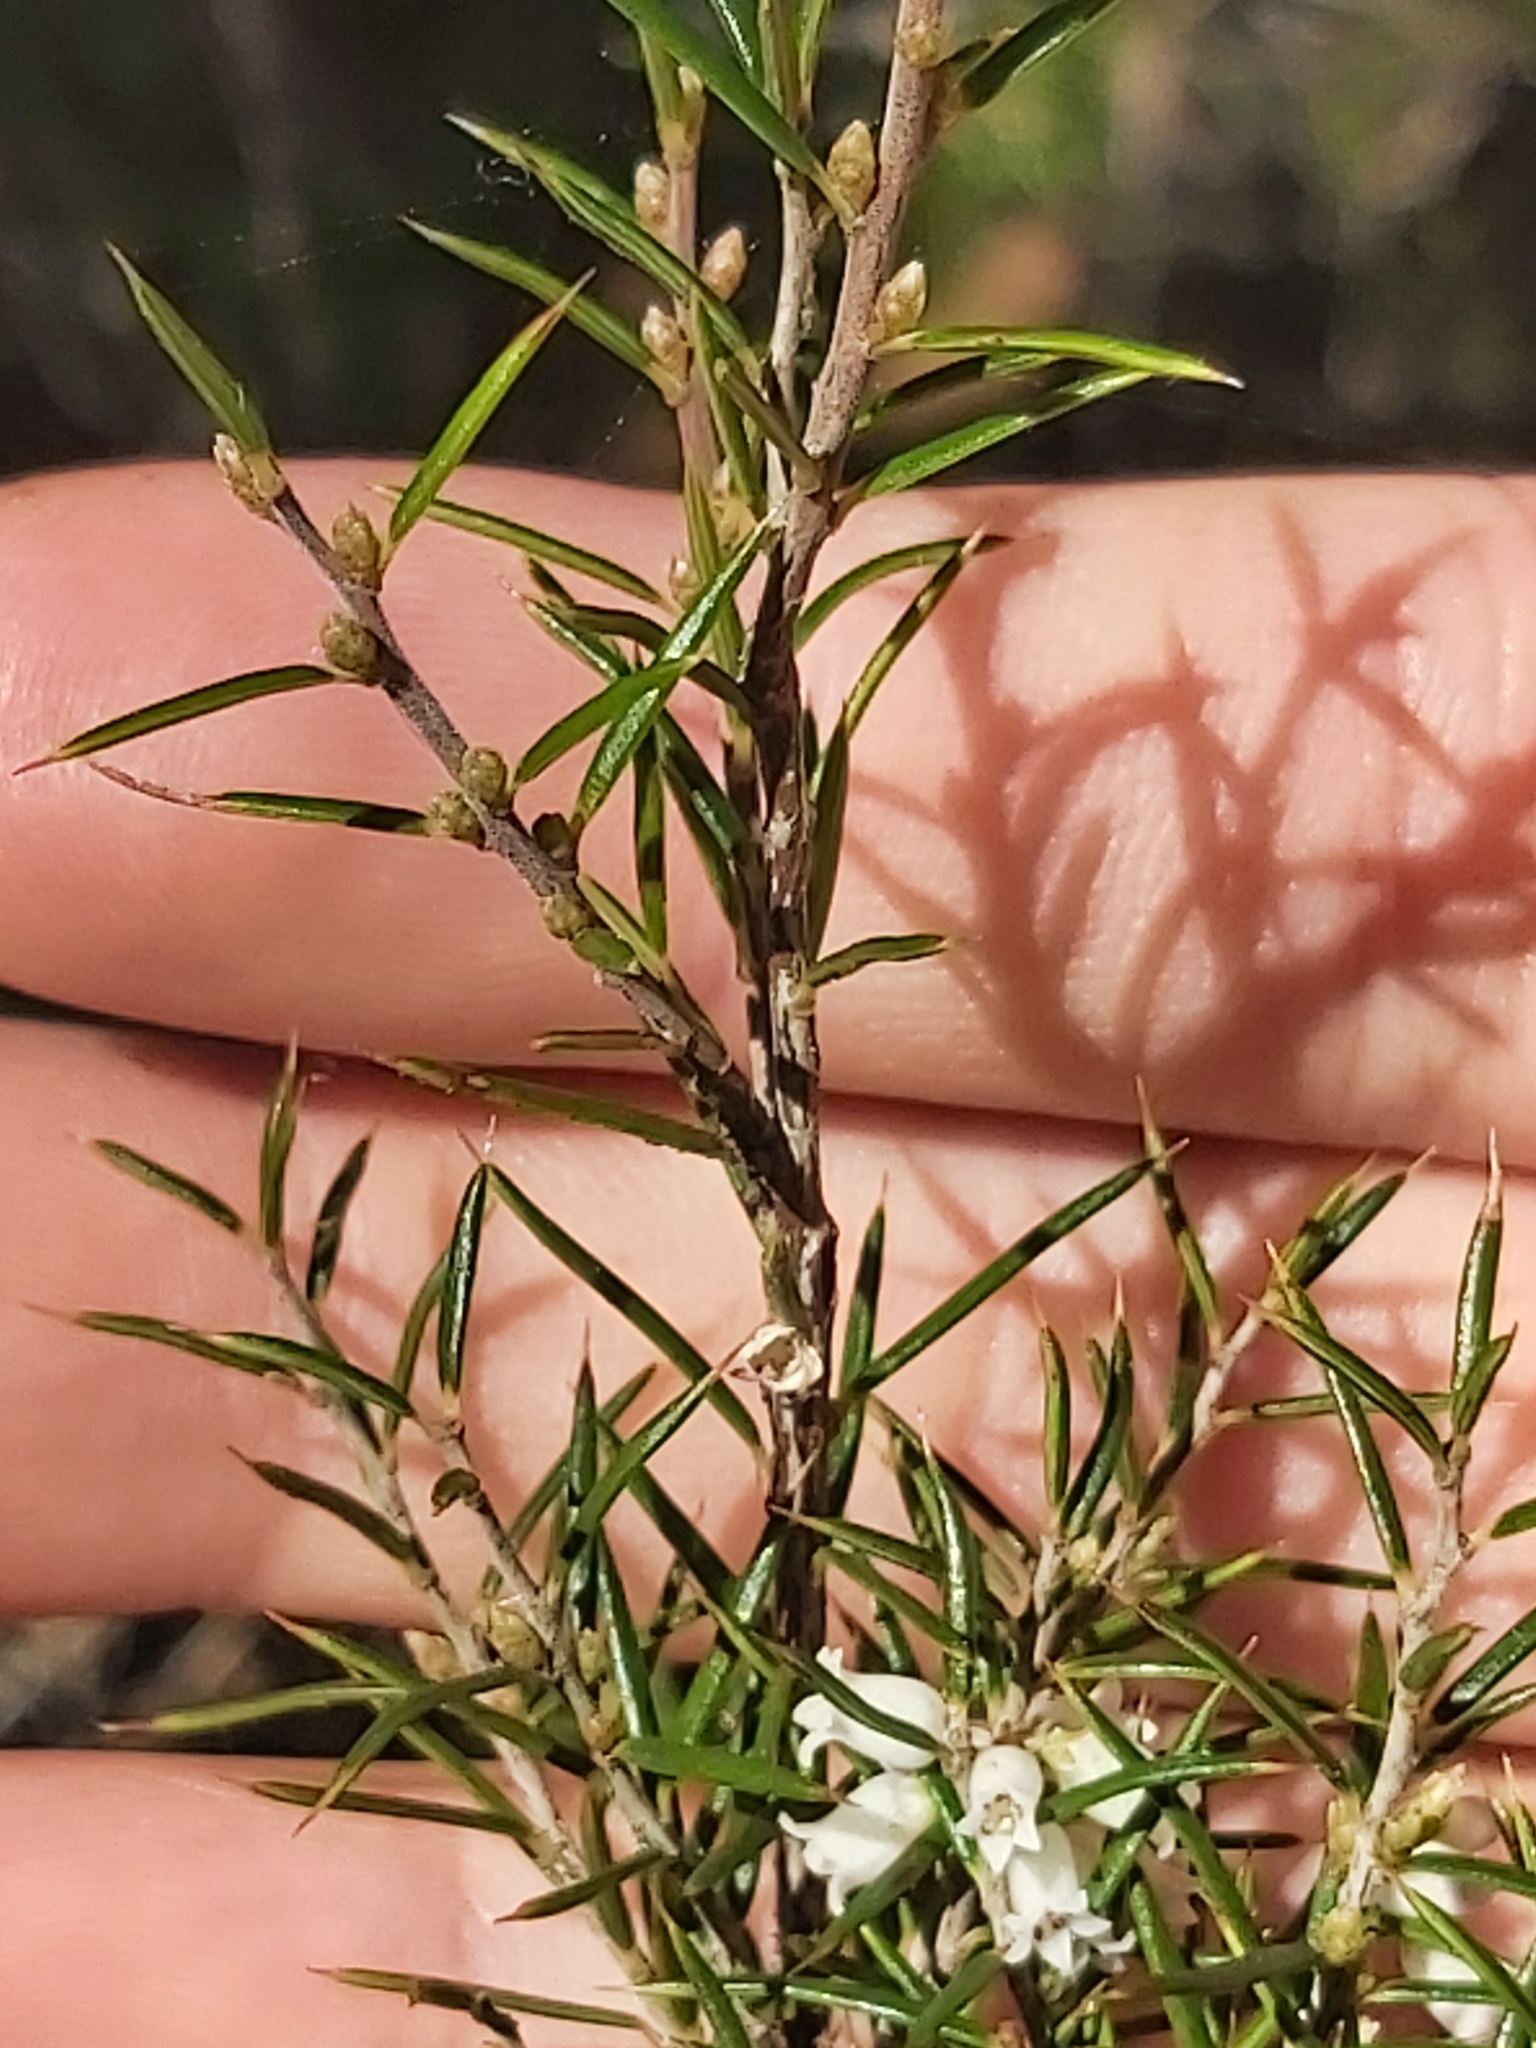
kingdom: Plantae
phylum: Tracheophyta
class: Magnoliopsida
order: Ericales
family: Ericaceae
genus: Lissanthe
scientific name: Lissanthe strigosa
